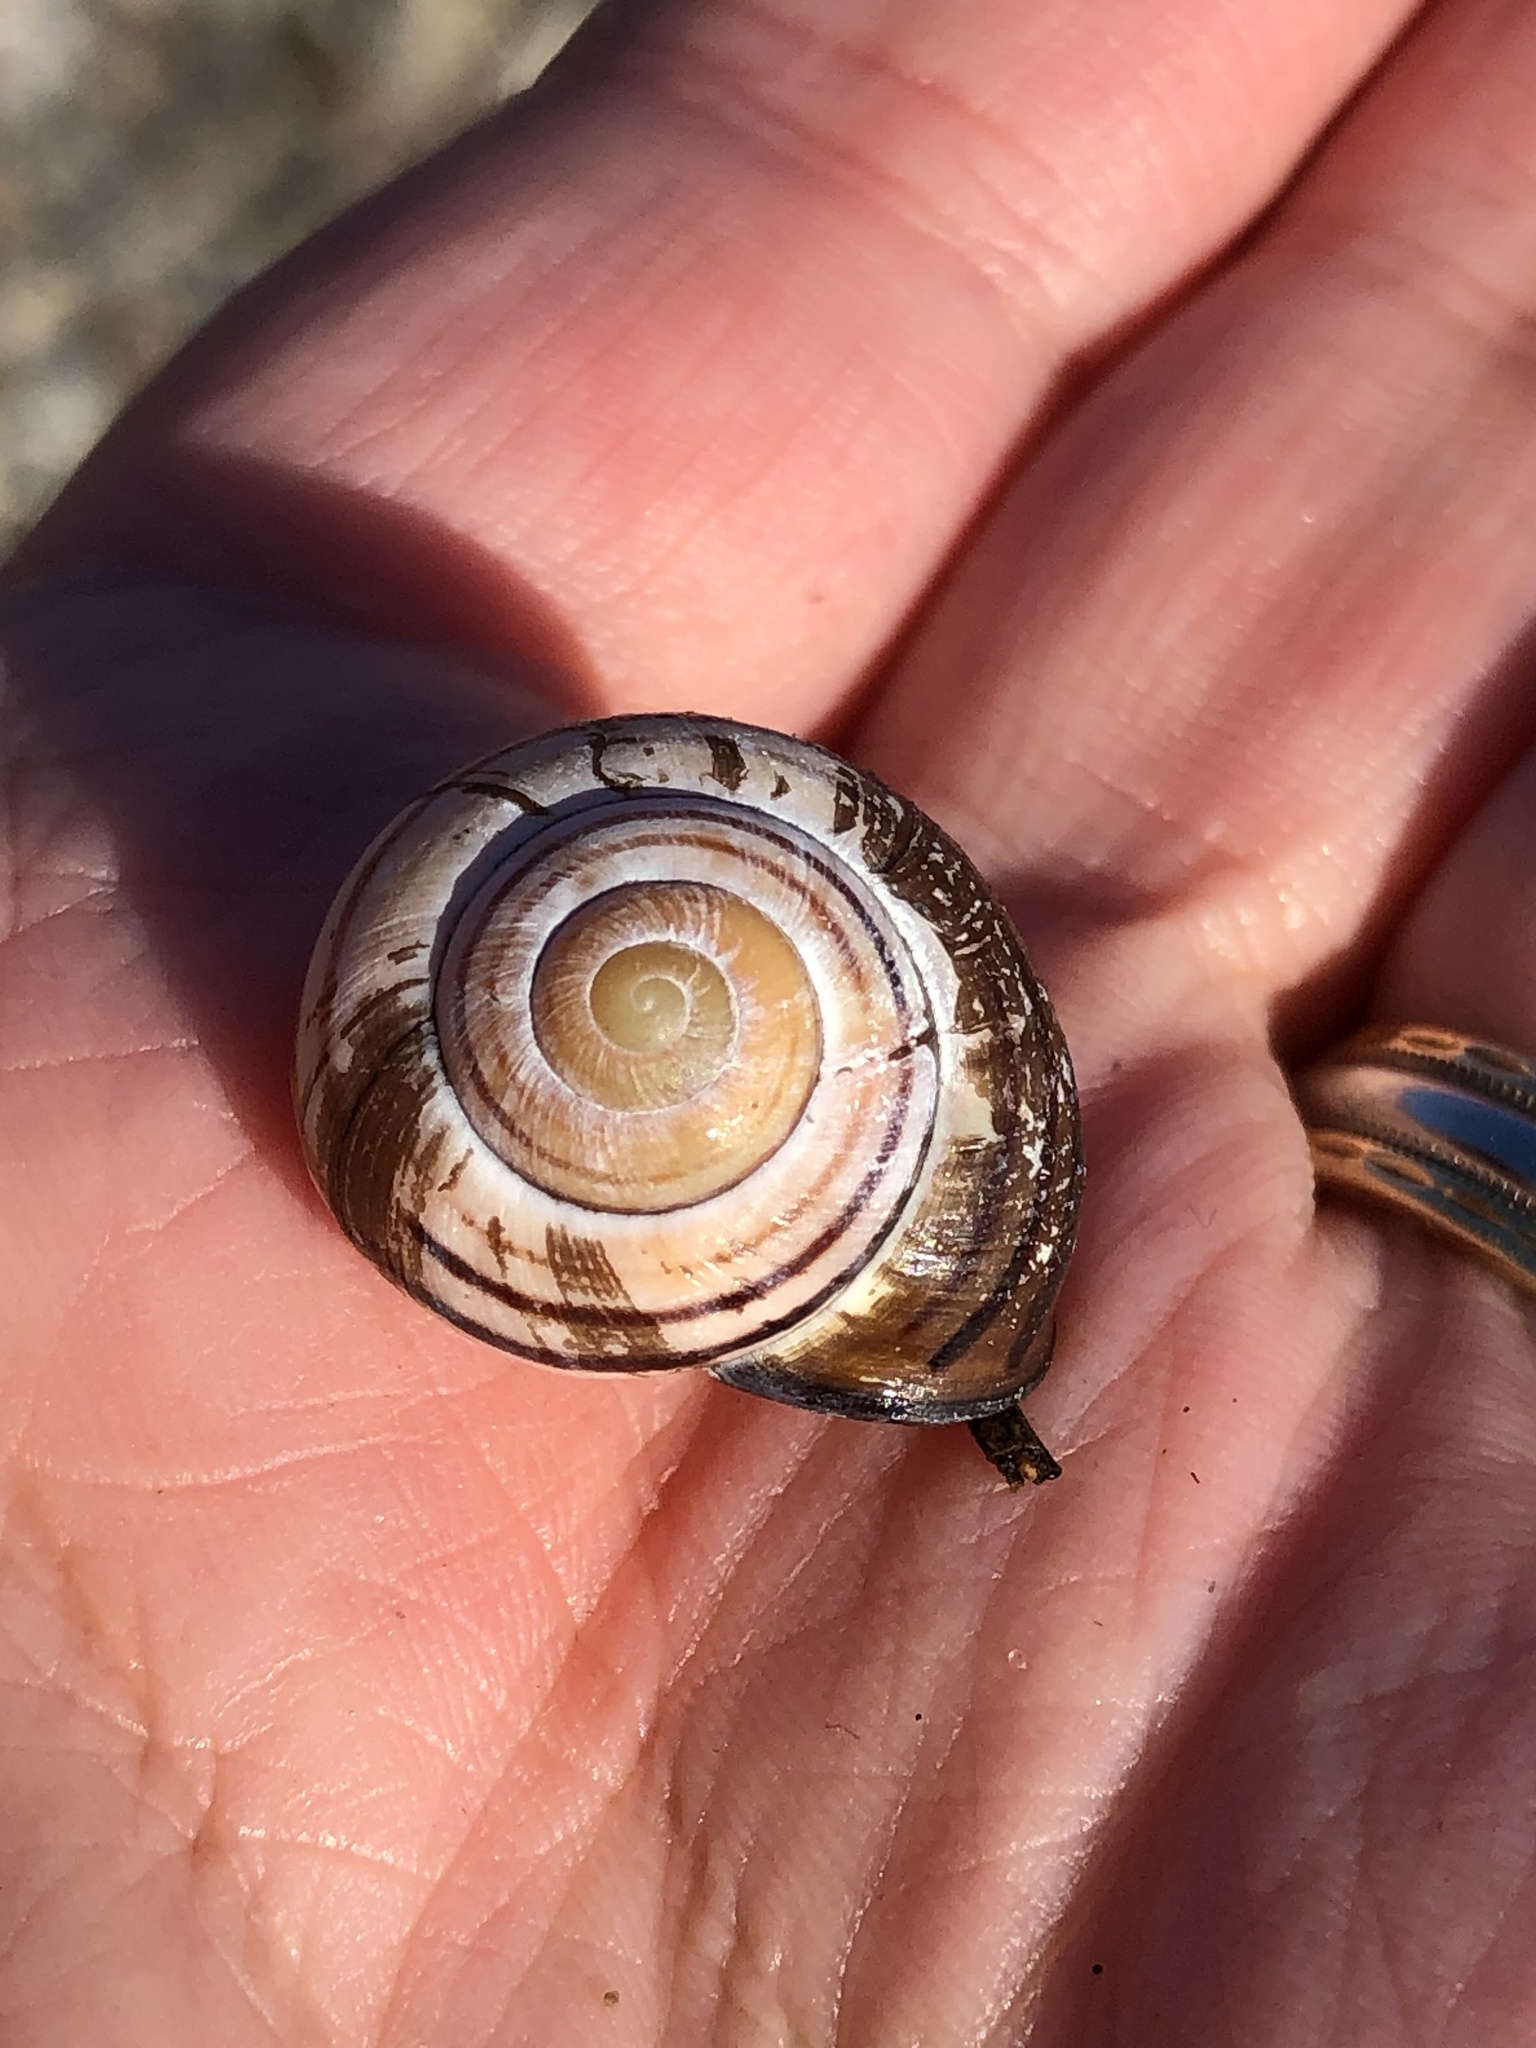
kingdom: Animalia
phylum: Mollusca
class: Gastropoda
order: Stylommatophora
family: Helicidae
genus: Cepaea
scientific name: Cepaea nemoralis
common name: Grovesnail
